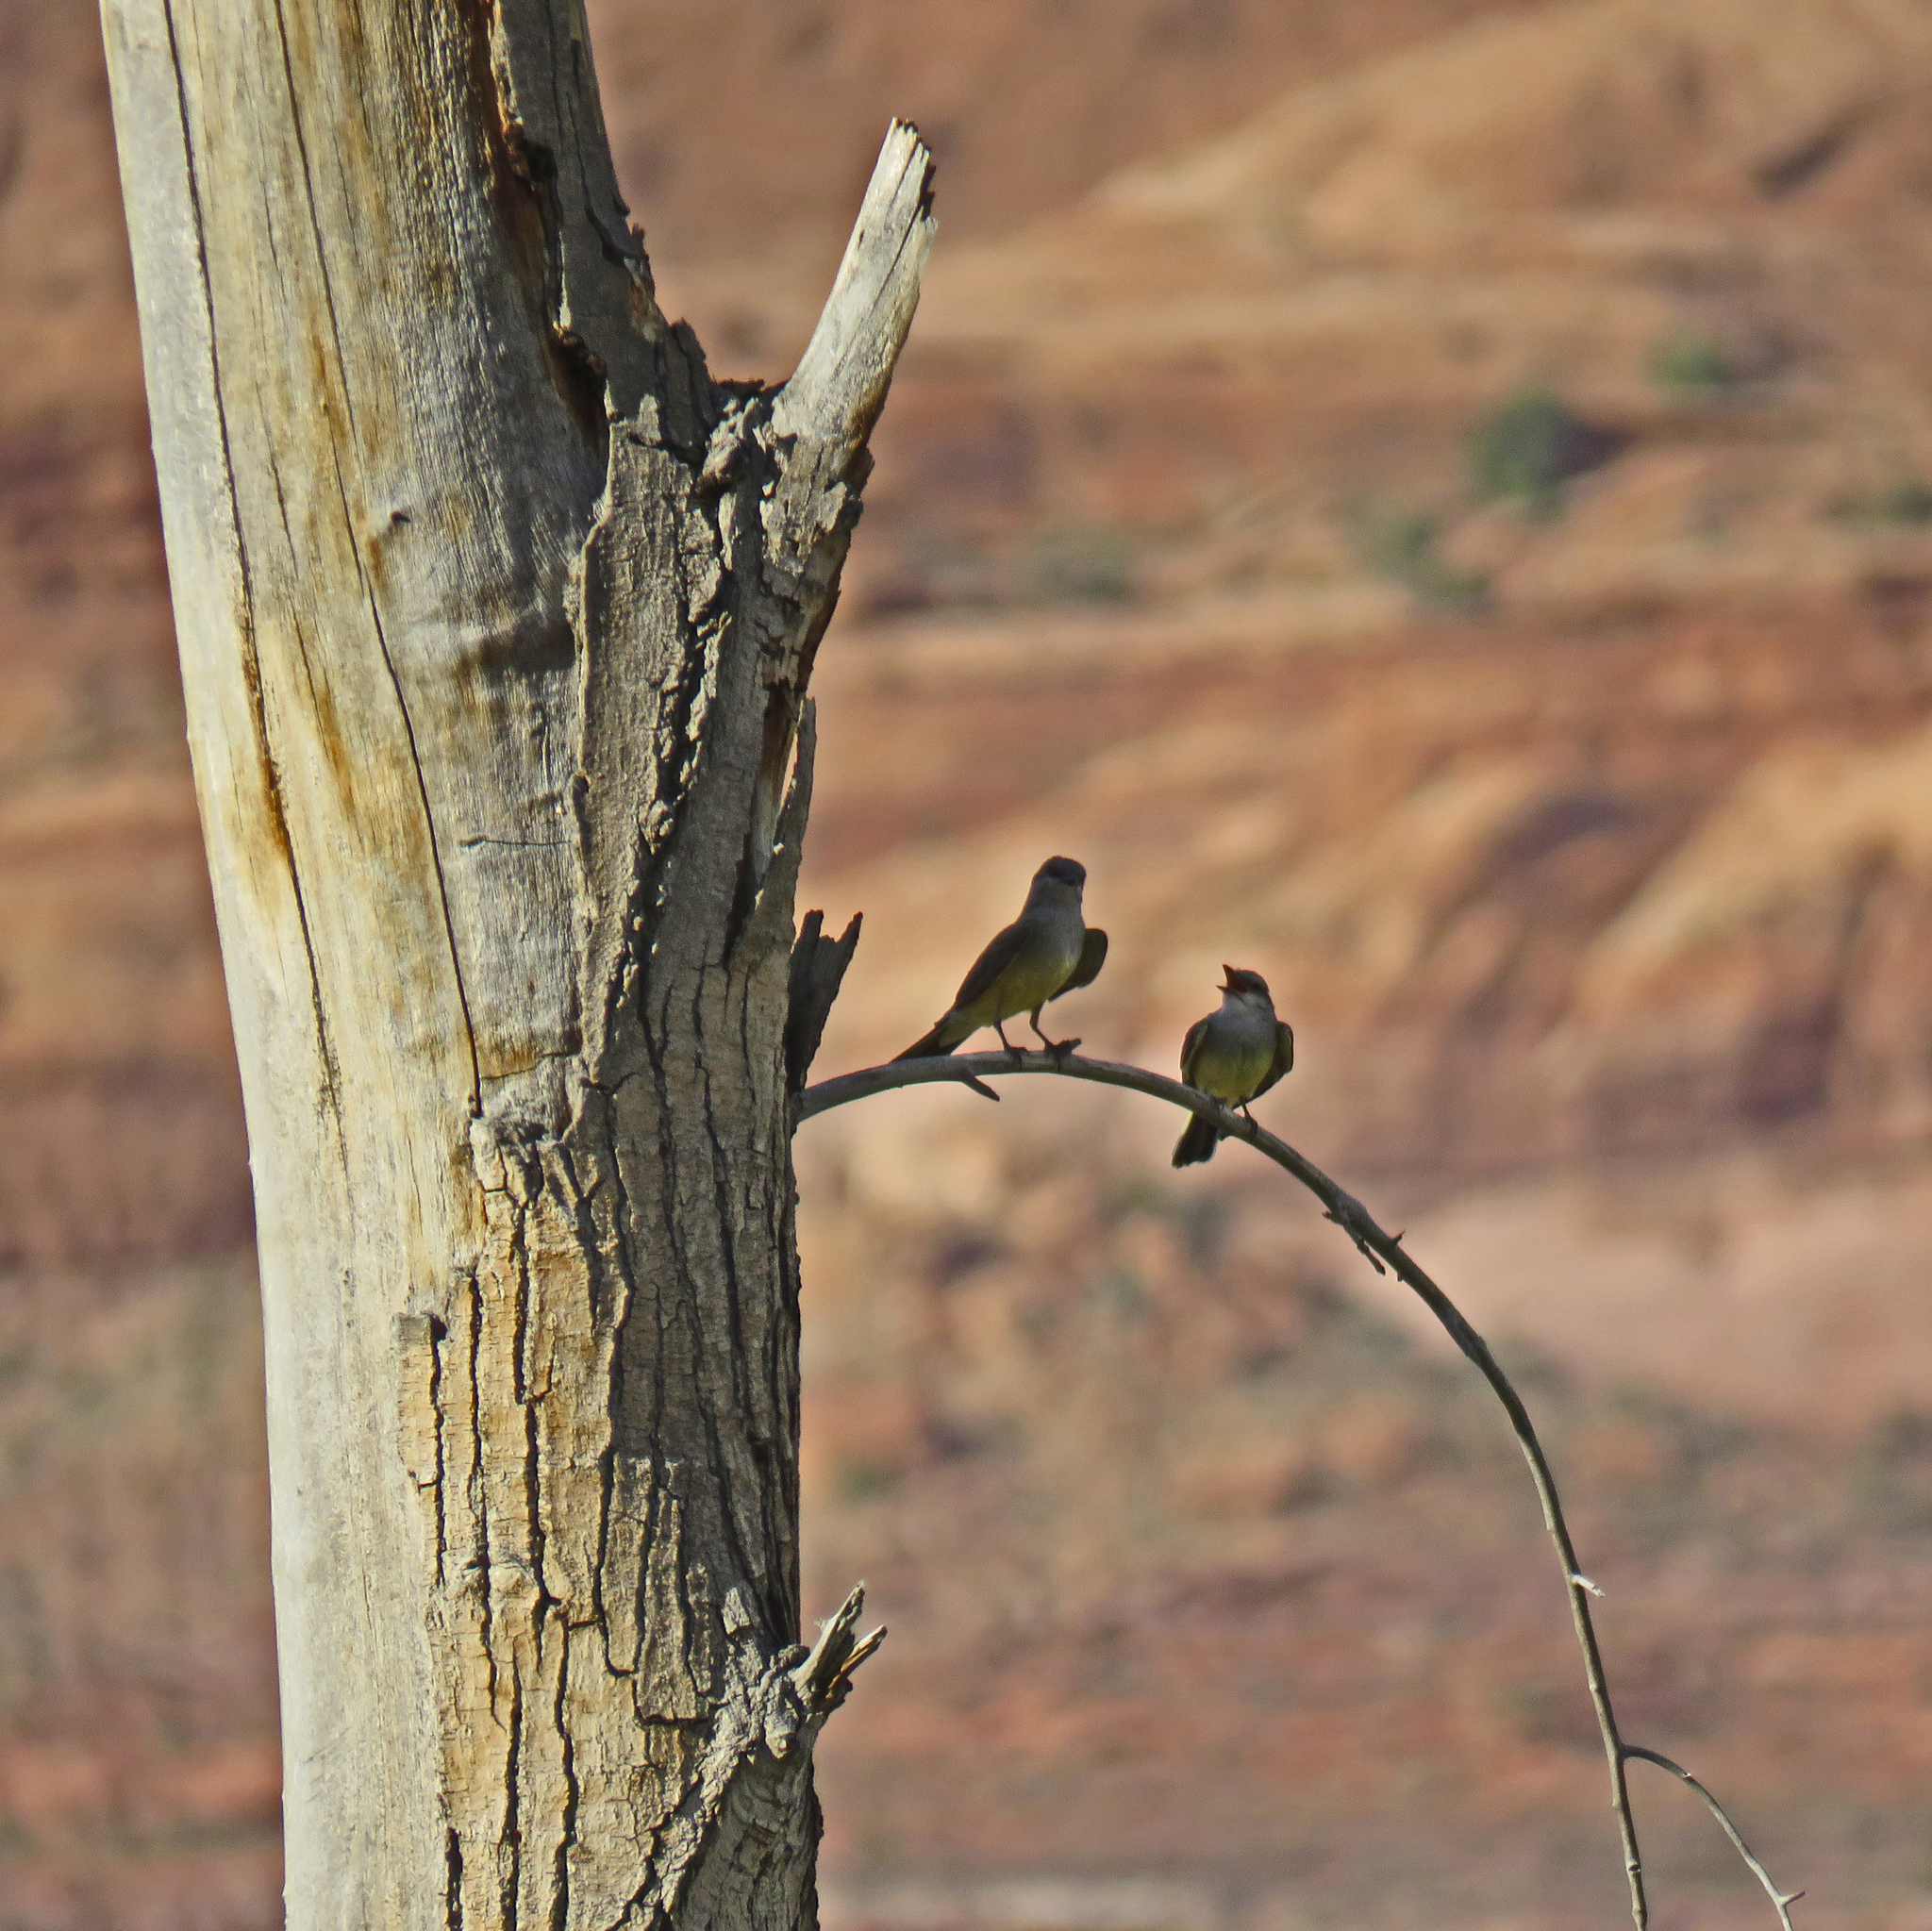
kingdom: Animalia
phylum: Chordata
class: Aves
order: Passeriformes
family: Tyrannidae
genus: Tyrannus
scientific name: Tyrannus verticalis
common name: Western kingbird
